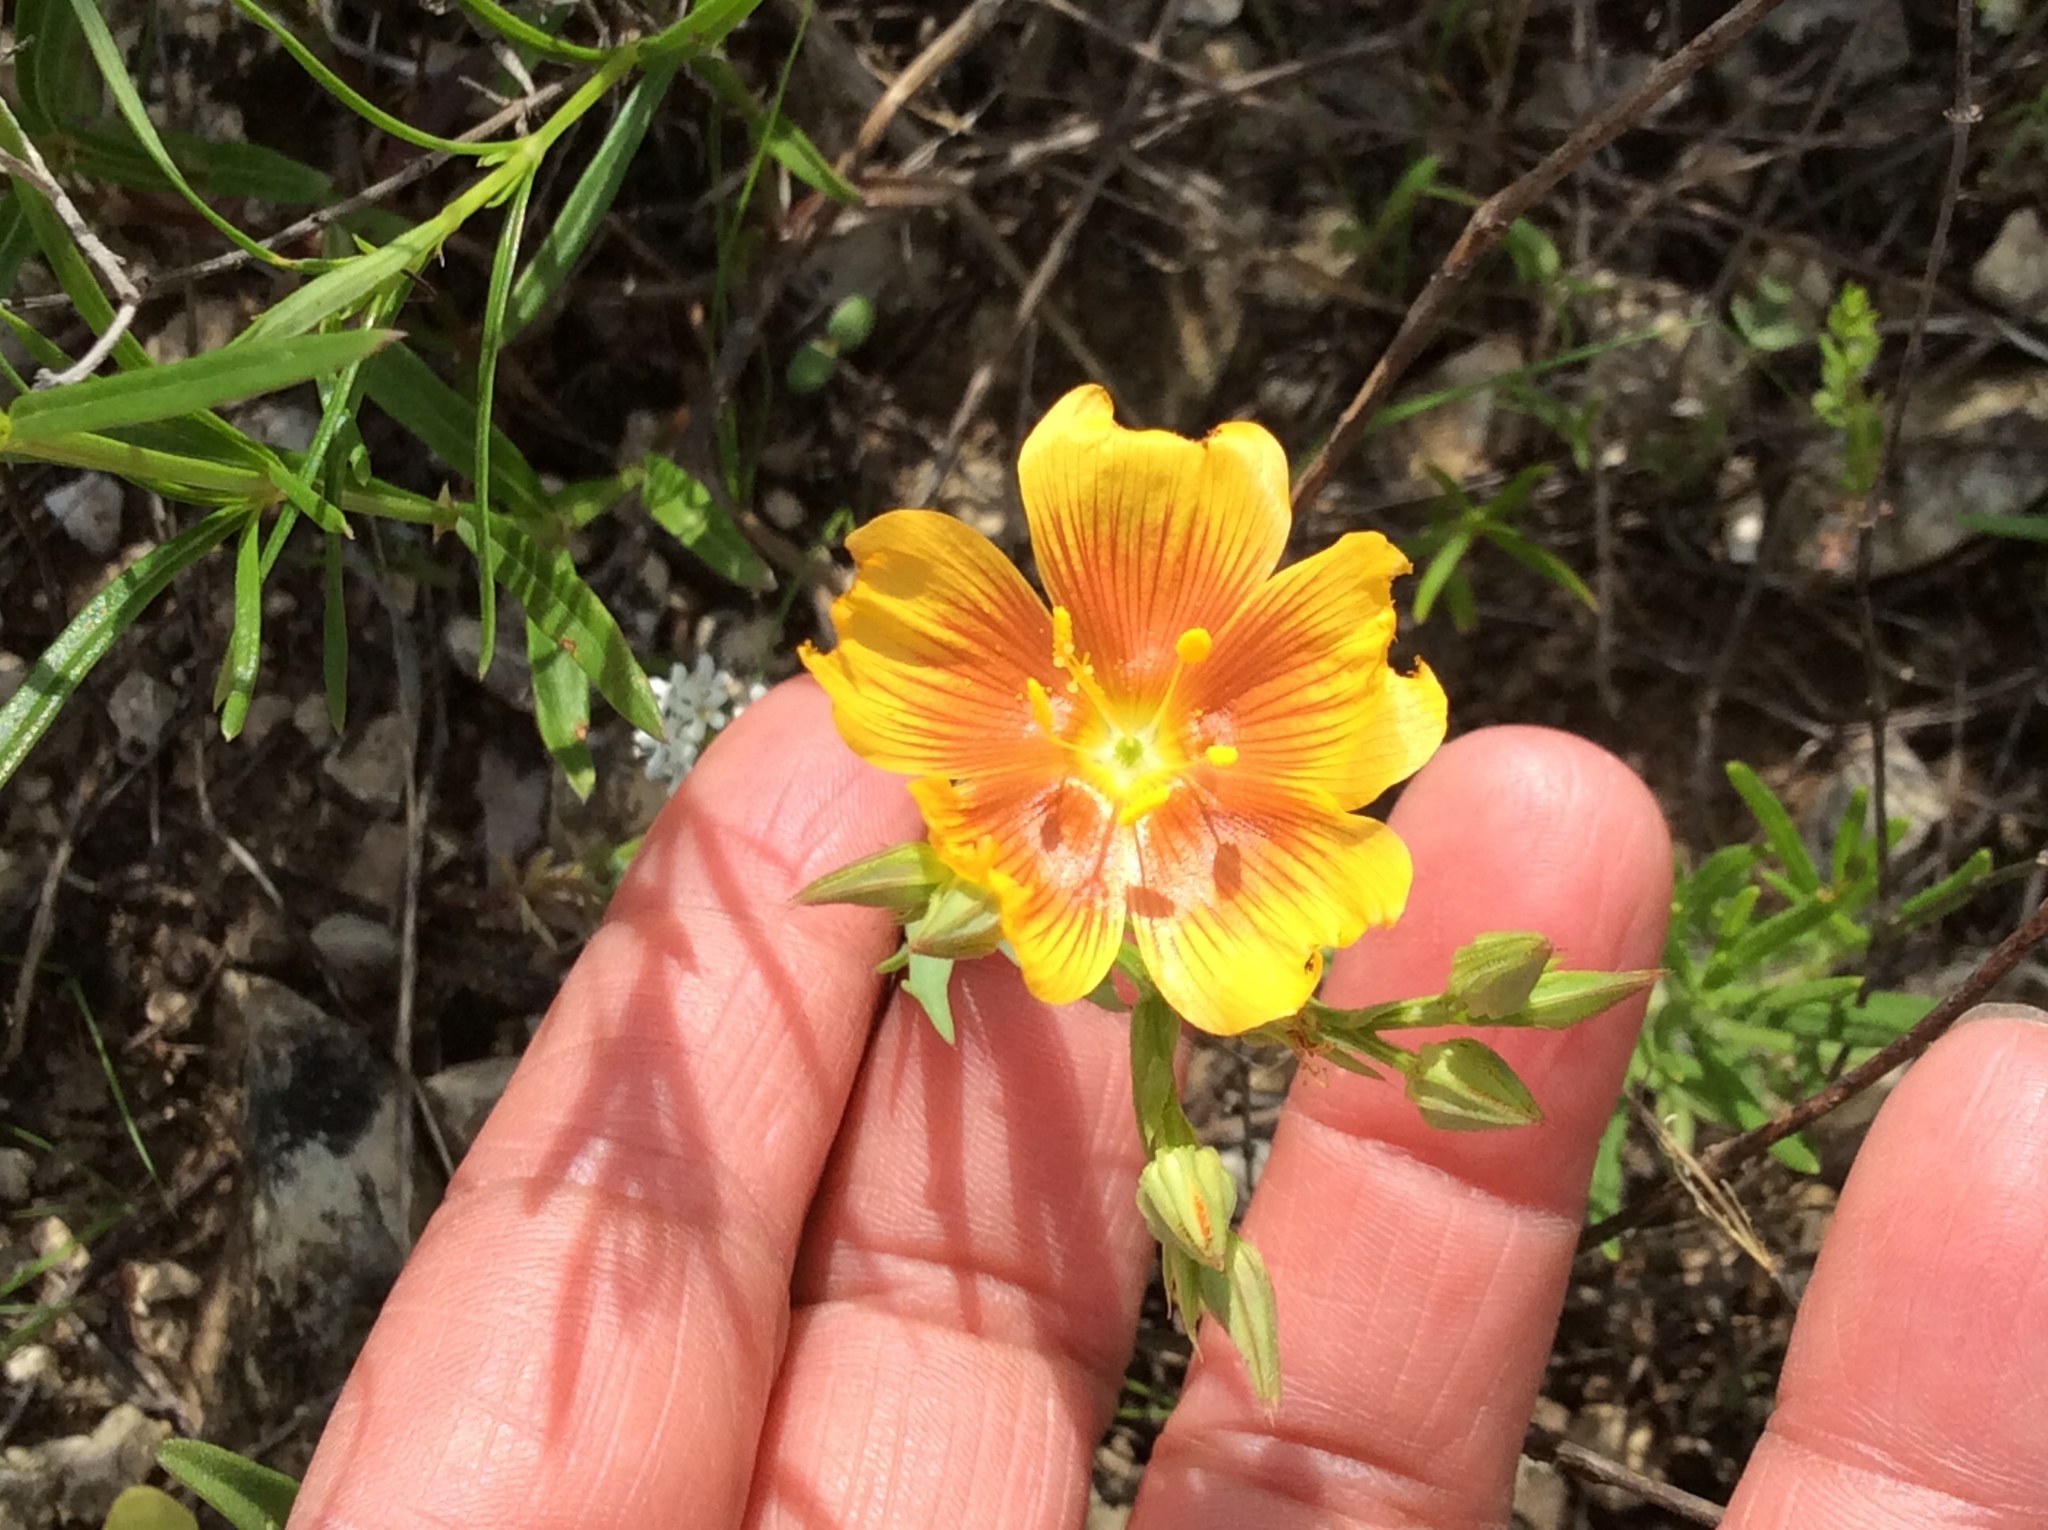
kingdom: Plantae
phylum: Tracheophyta
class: Magnoliopsida
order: Malpighiales
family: Linaceae
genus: Linum
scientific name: Linum rigidum
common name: Stiff-stem flax
